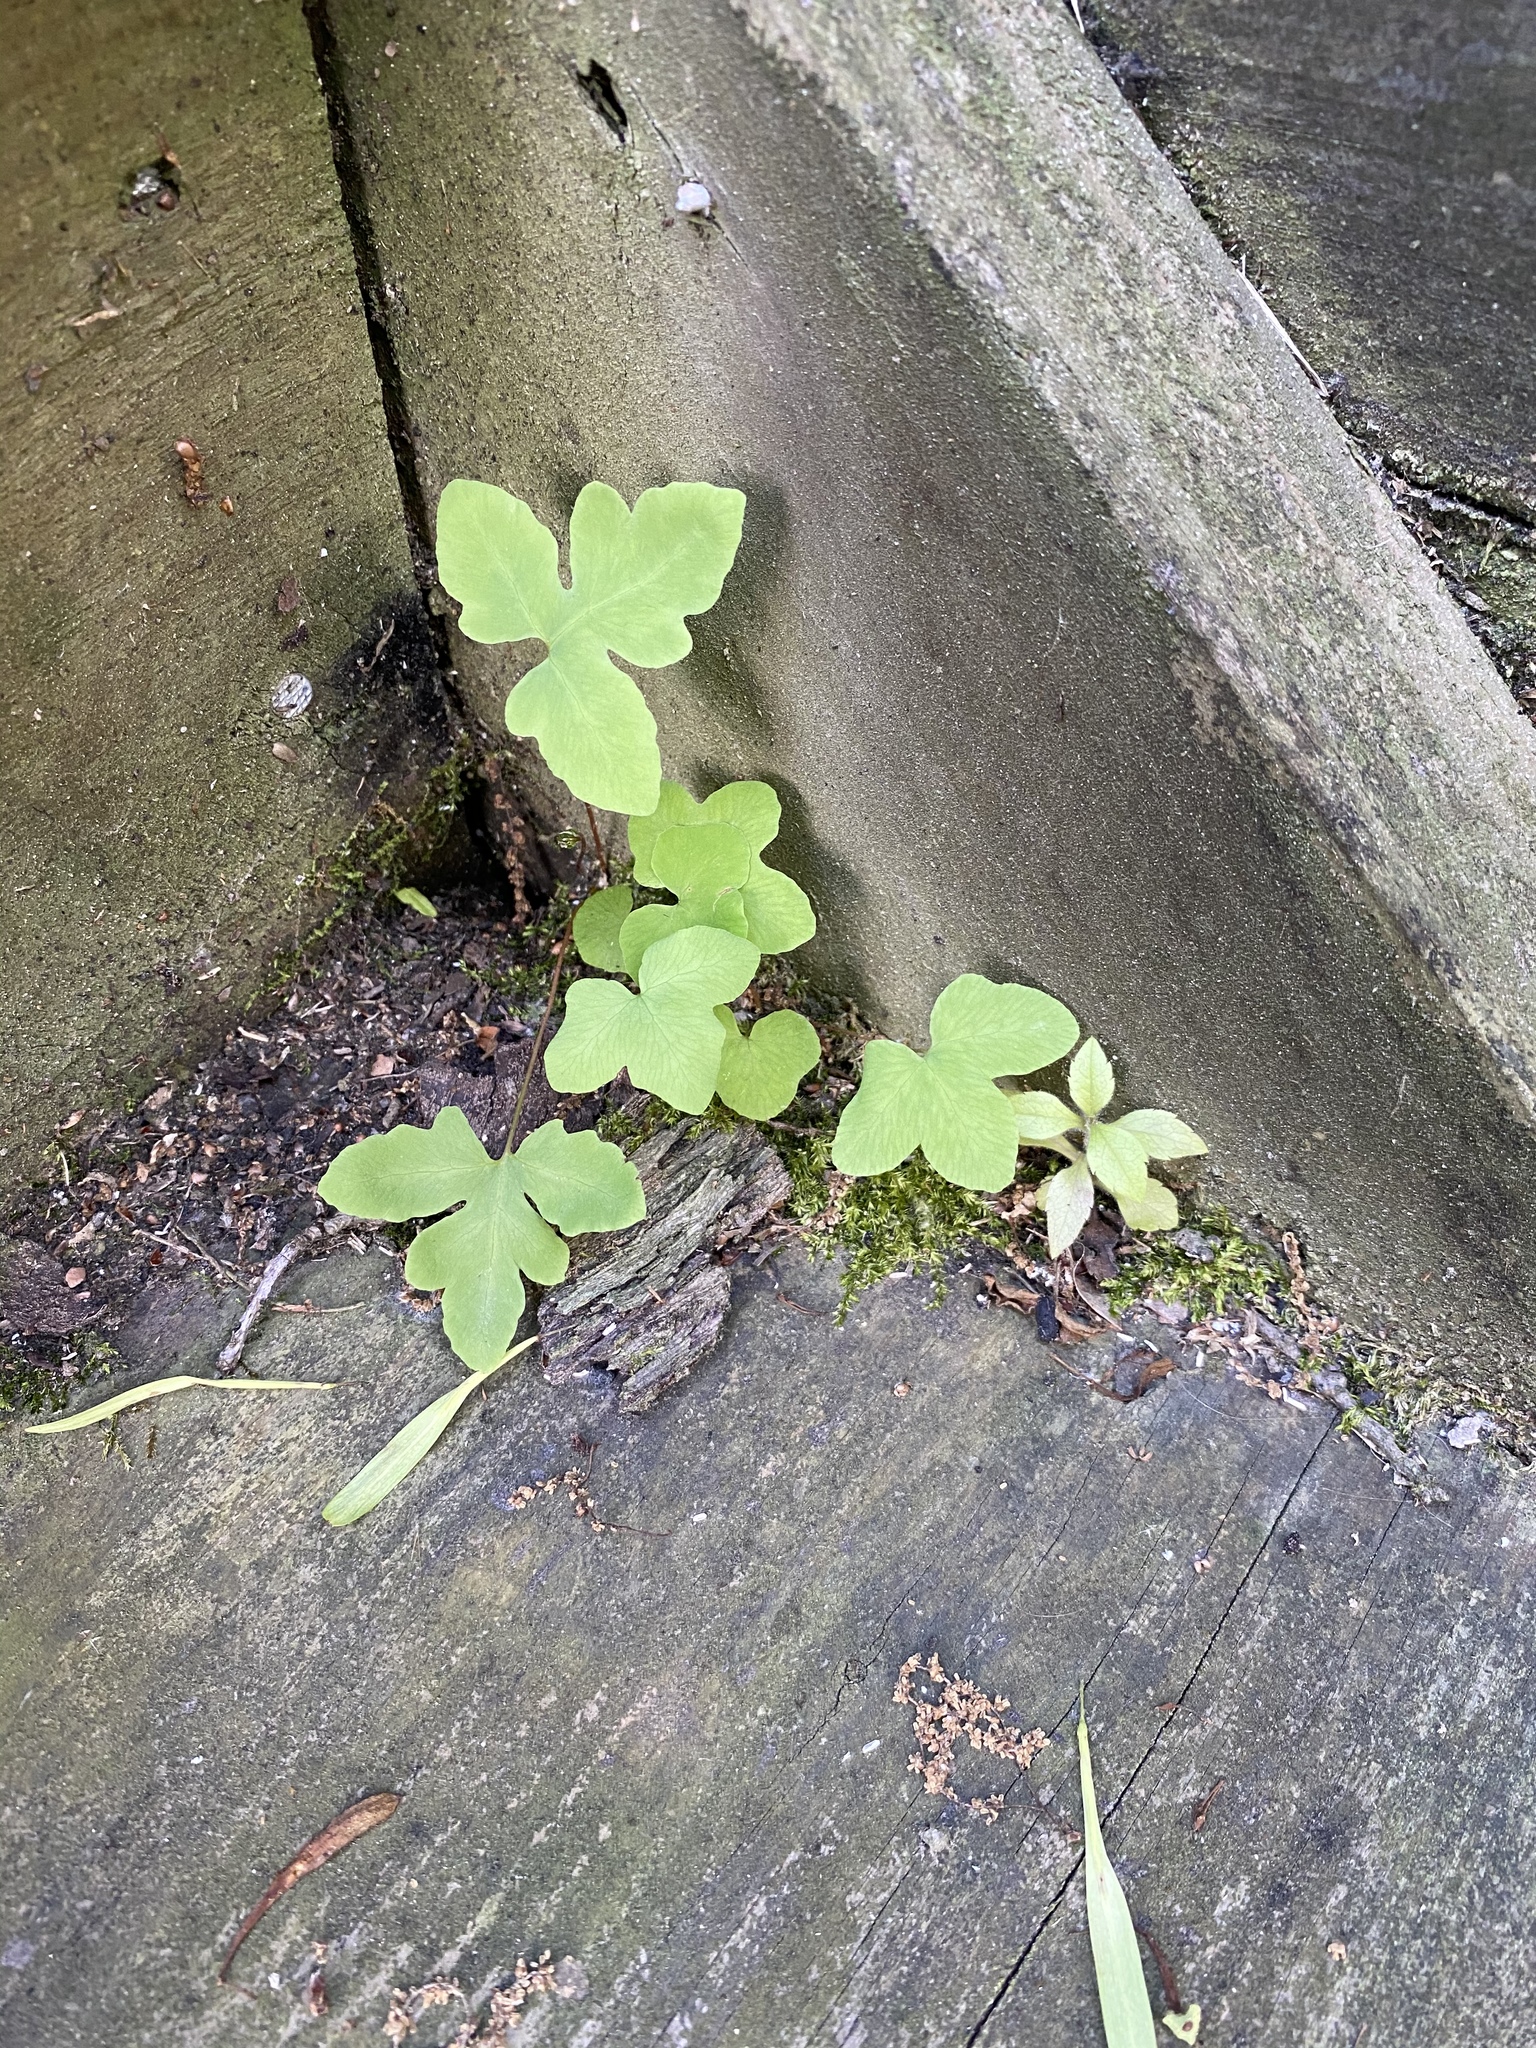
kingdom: Plantae
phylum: Tracheophyta
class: Polypodiopsida
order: Polypodiales
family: Onocleaceae
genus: Onoclea
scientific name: Onoclea sensibilis
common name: Sensitive fern
